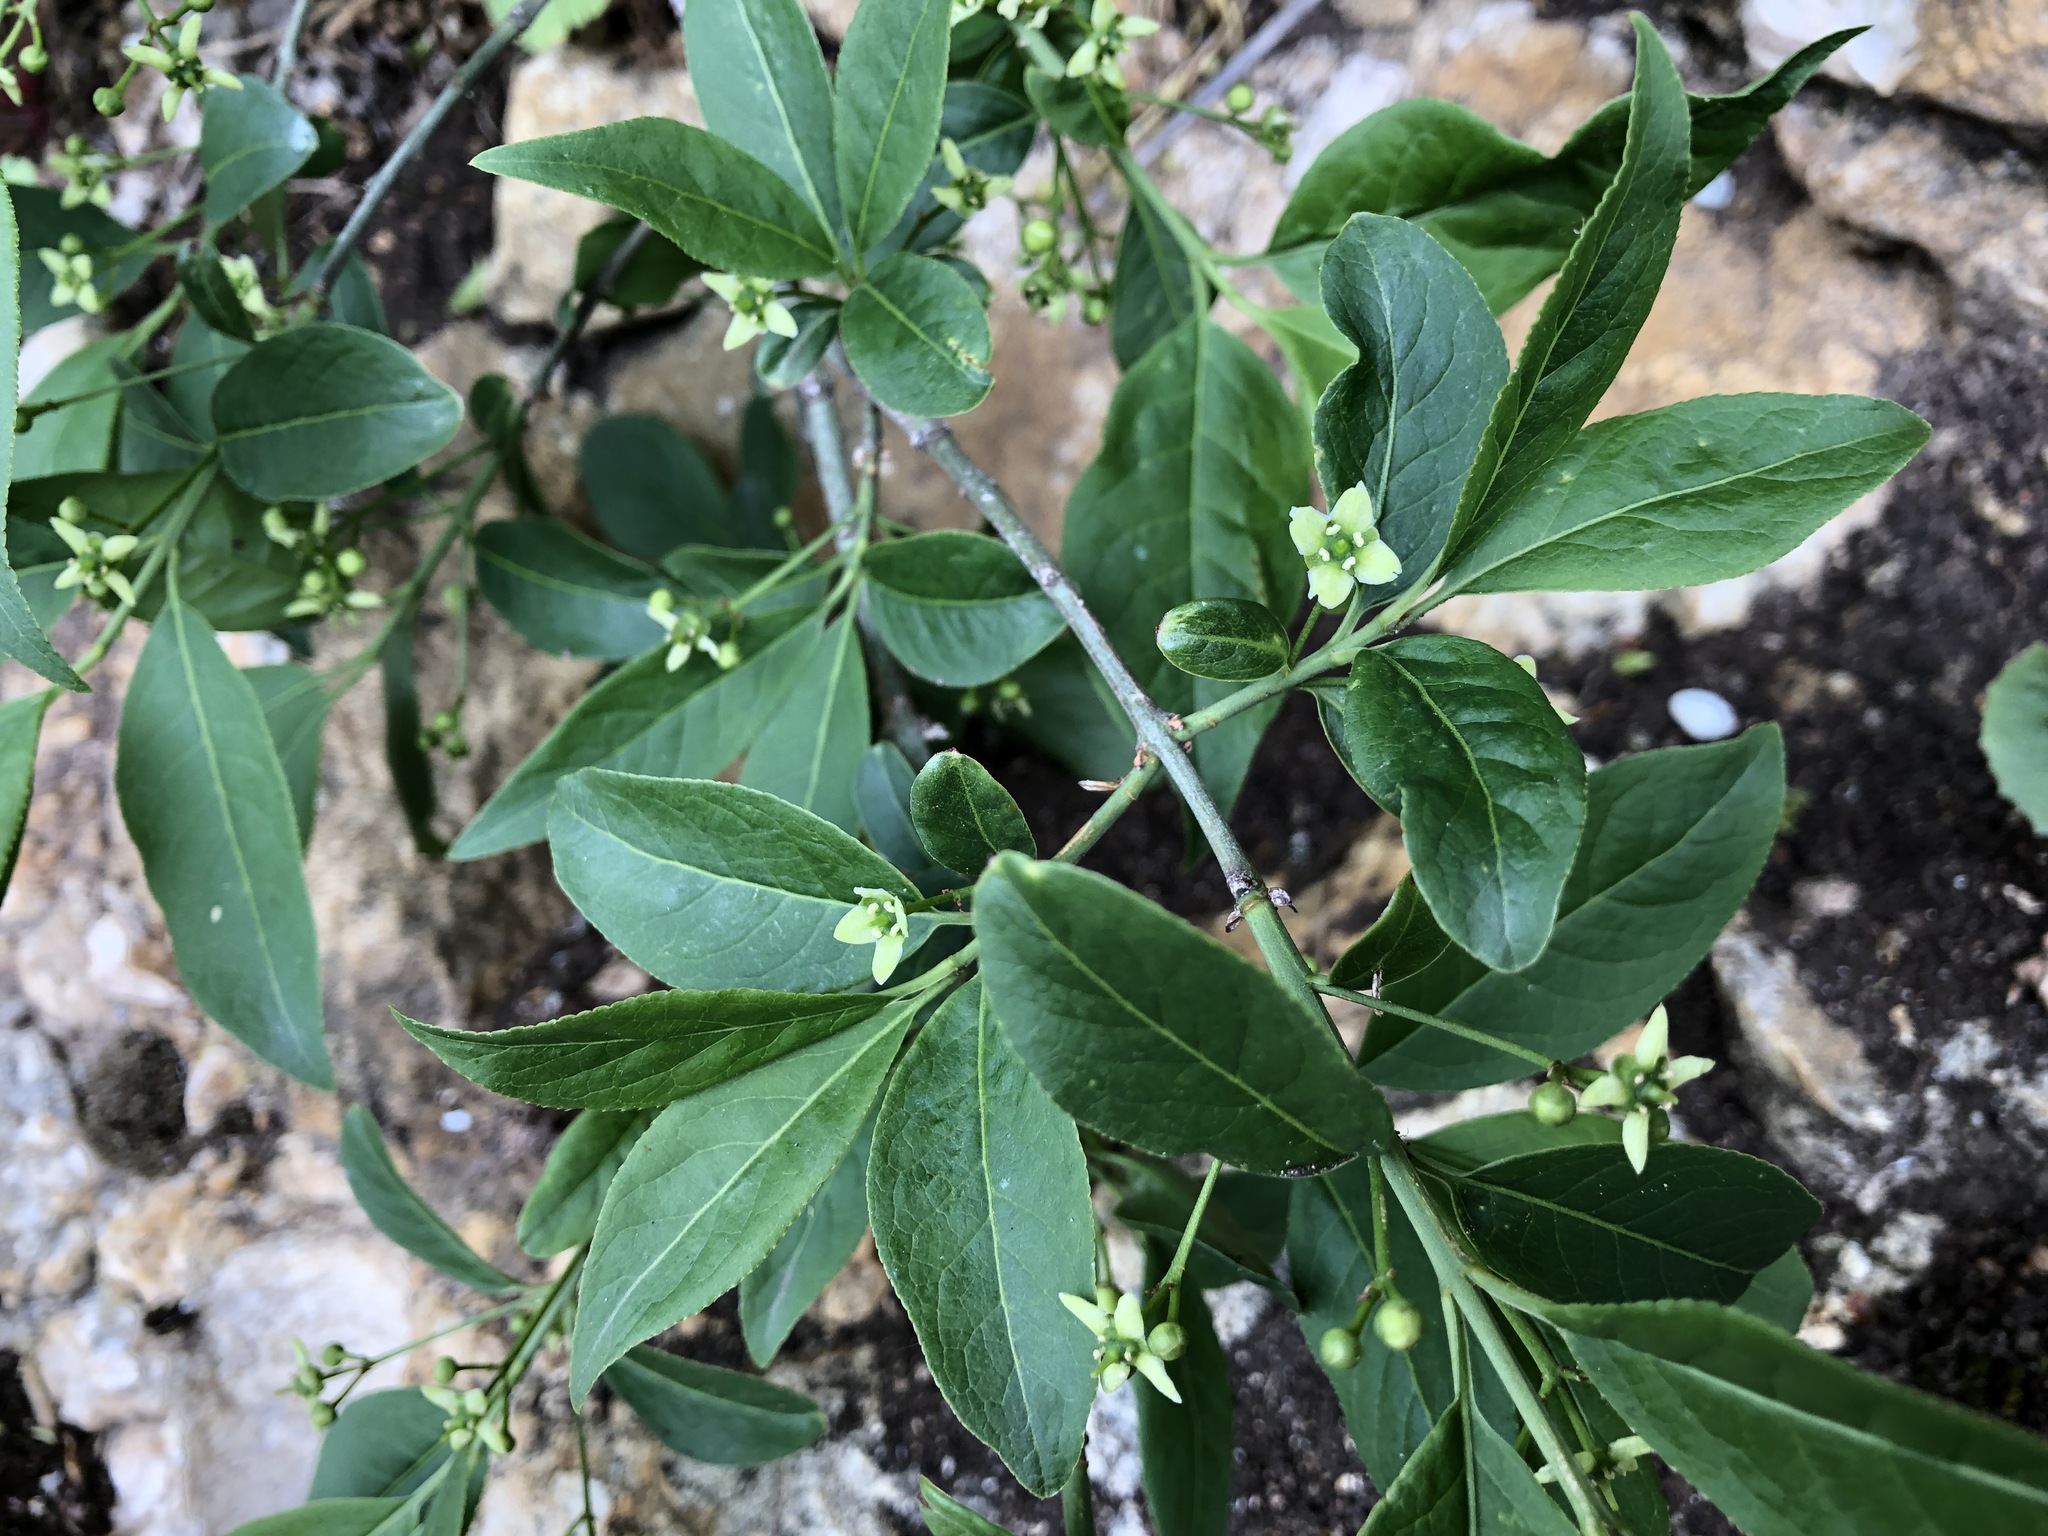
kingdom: Plantae
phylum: Tracheophyta
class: Magnoliopsida
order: Celastrales
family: Celastraceae
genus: Euonymus
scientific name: Euonymus europaeus
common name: Spindle
